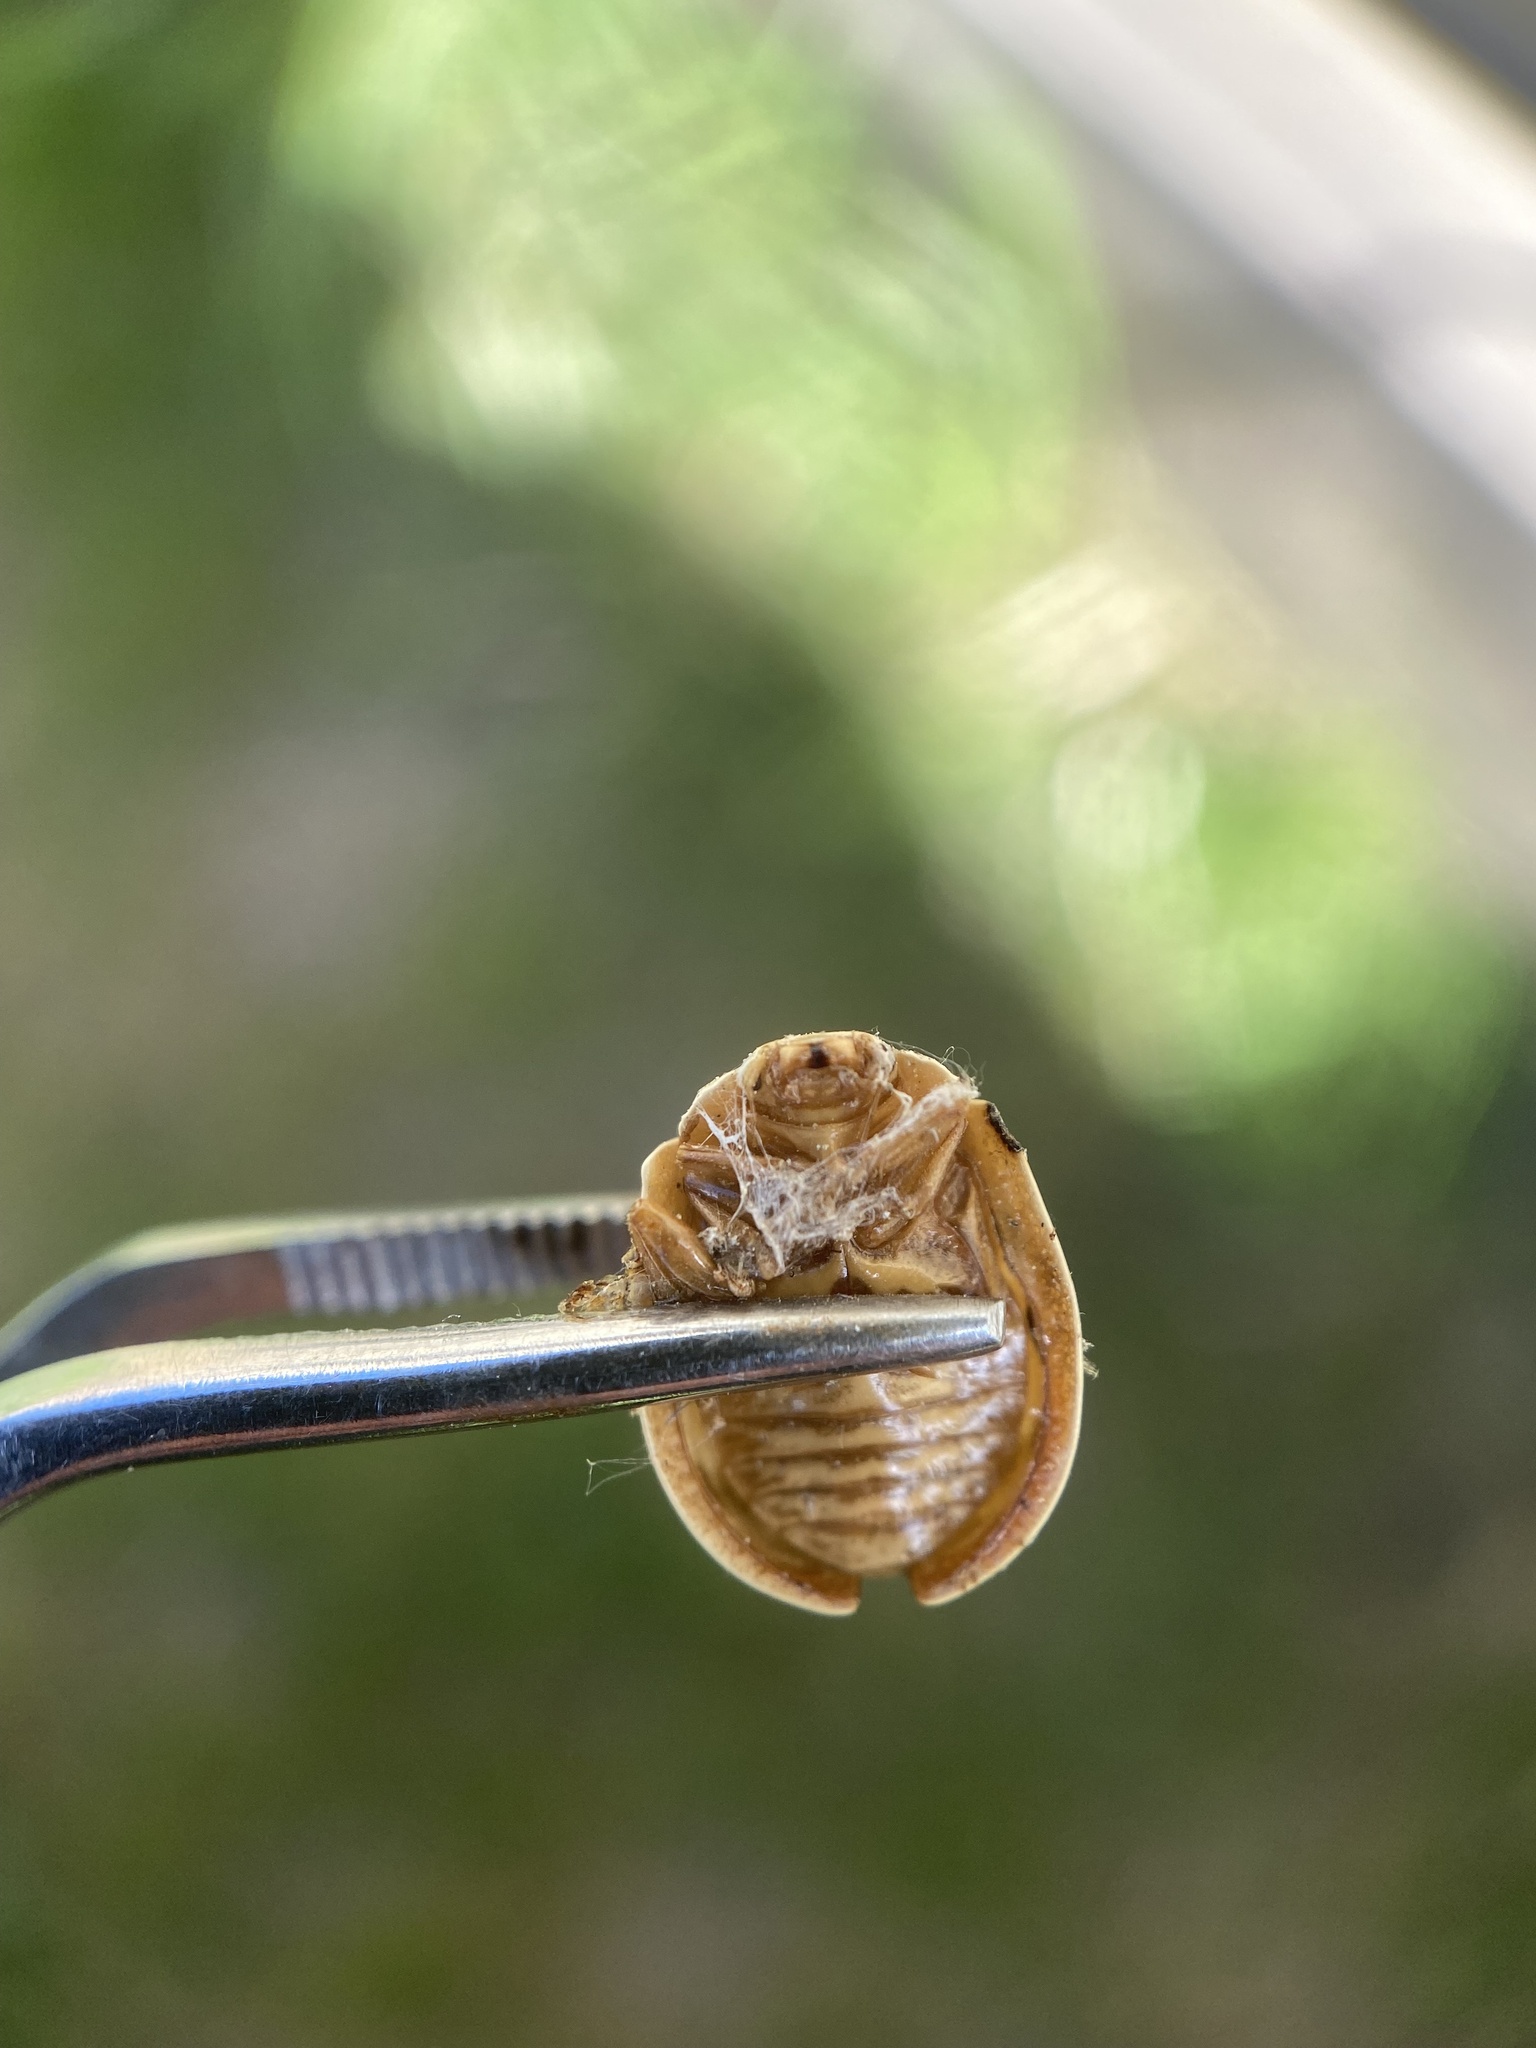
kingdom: Animalia
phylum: Arthropoda
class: Insecta
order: Coleoptera
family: Chrysomelidae
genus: Paropsis
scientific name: Paropsis charybdis
